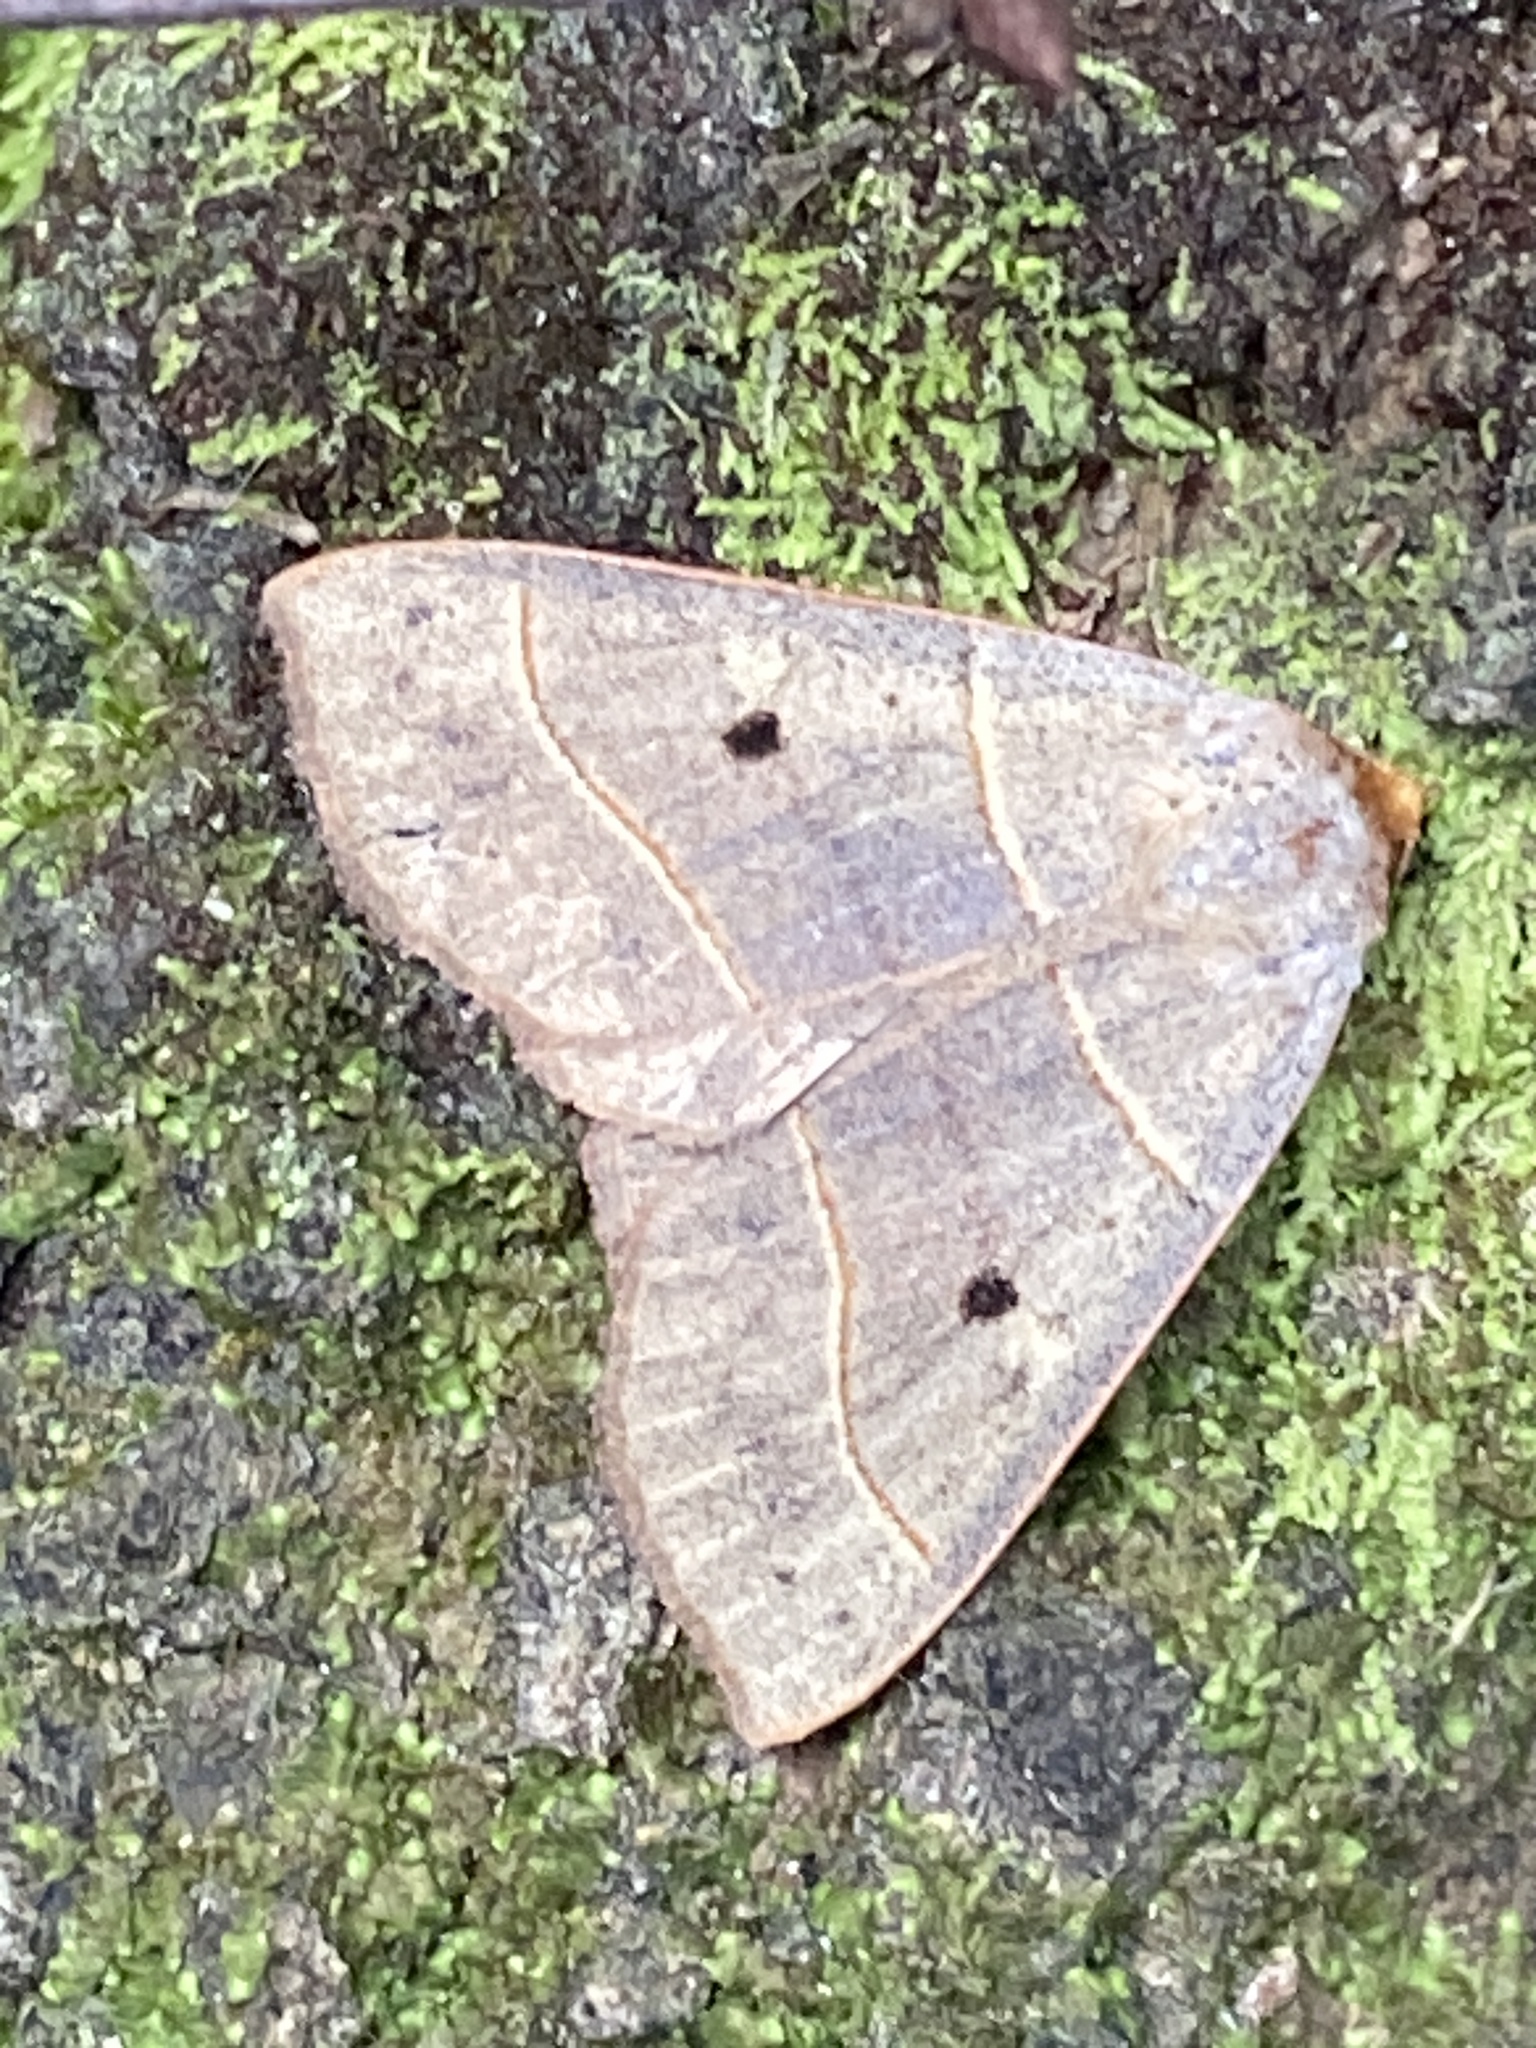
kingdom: Animalia
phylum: Arthropoda
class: Insecta
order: Lepidoptera
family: Erebidae
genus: Panopoda
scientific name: Panopoda rufimargo
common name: Red-lined panopoda moth
